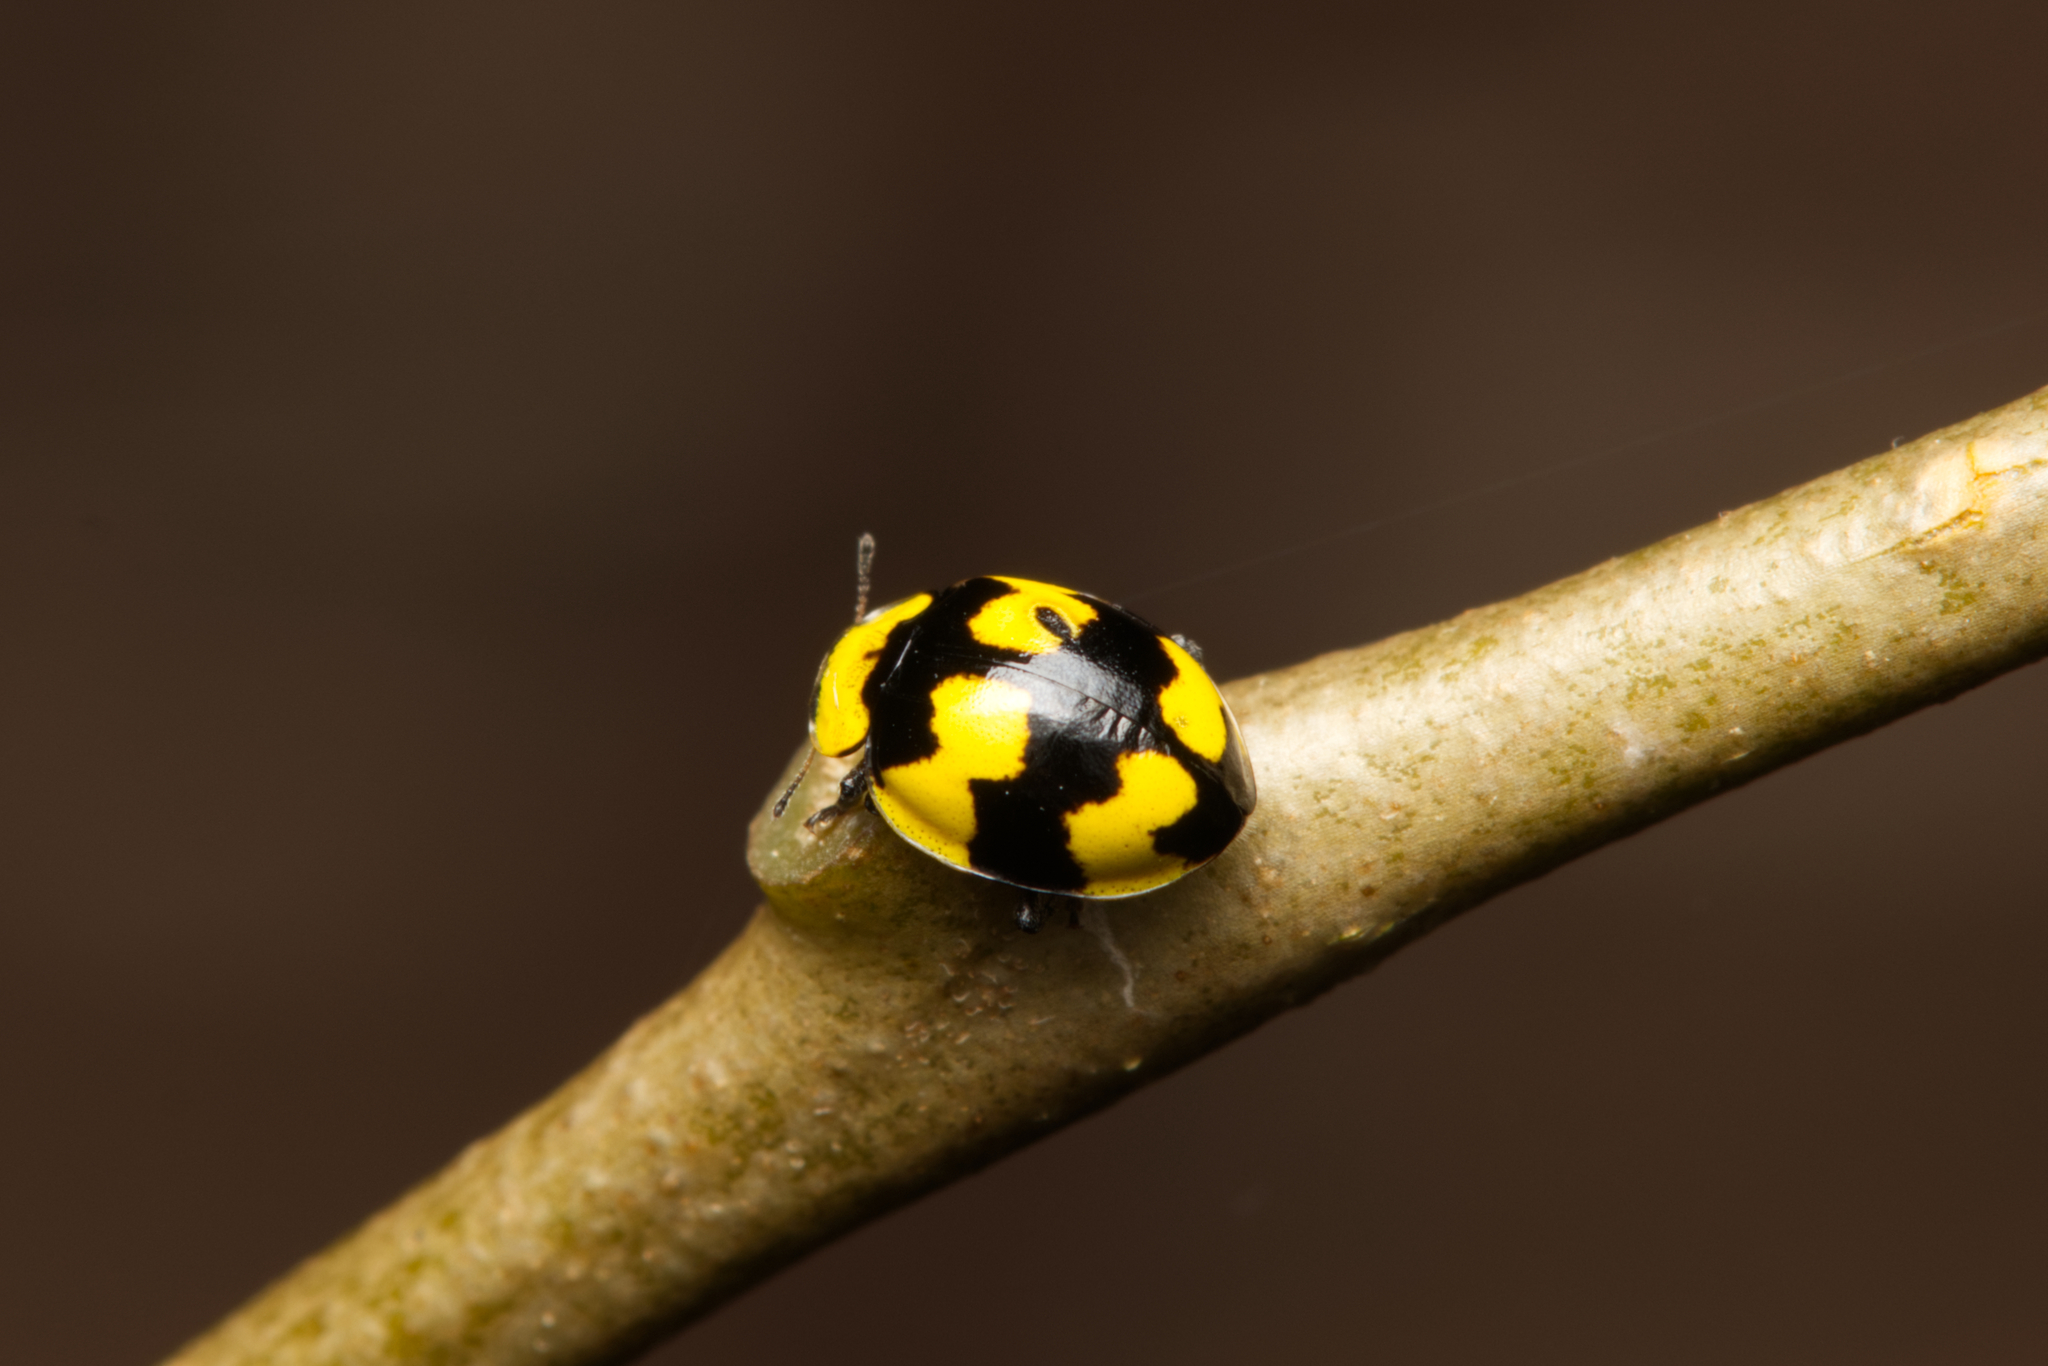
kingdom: Animalia
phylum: Arthropoda
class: Insecta
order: Coleoptera
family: Coccinellidae
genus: Illeis
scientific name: Illeis galbula
